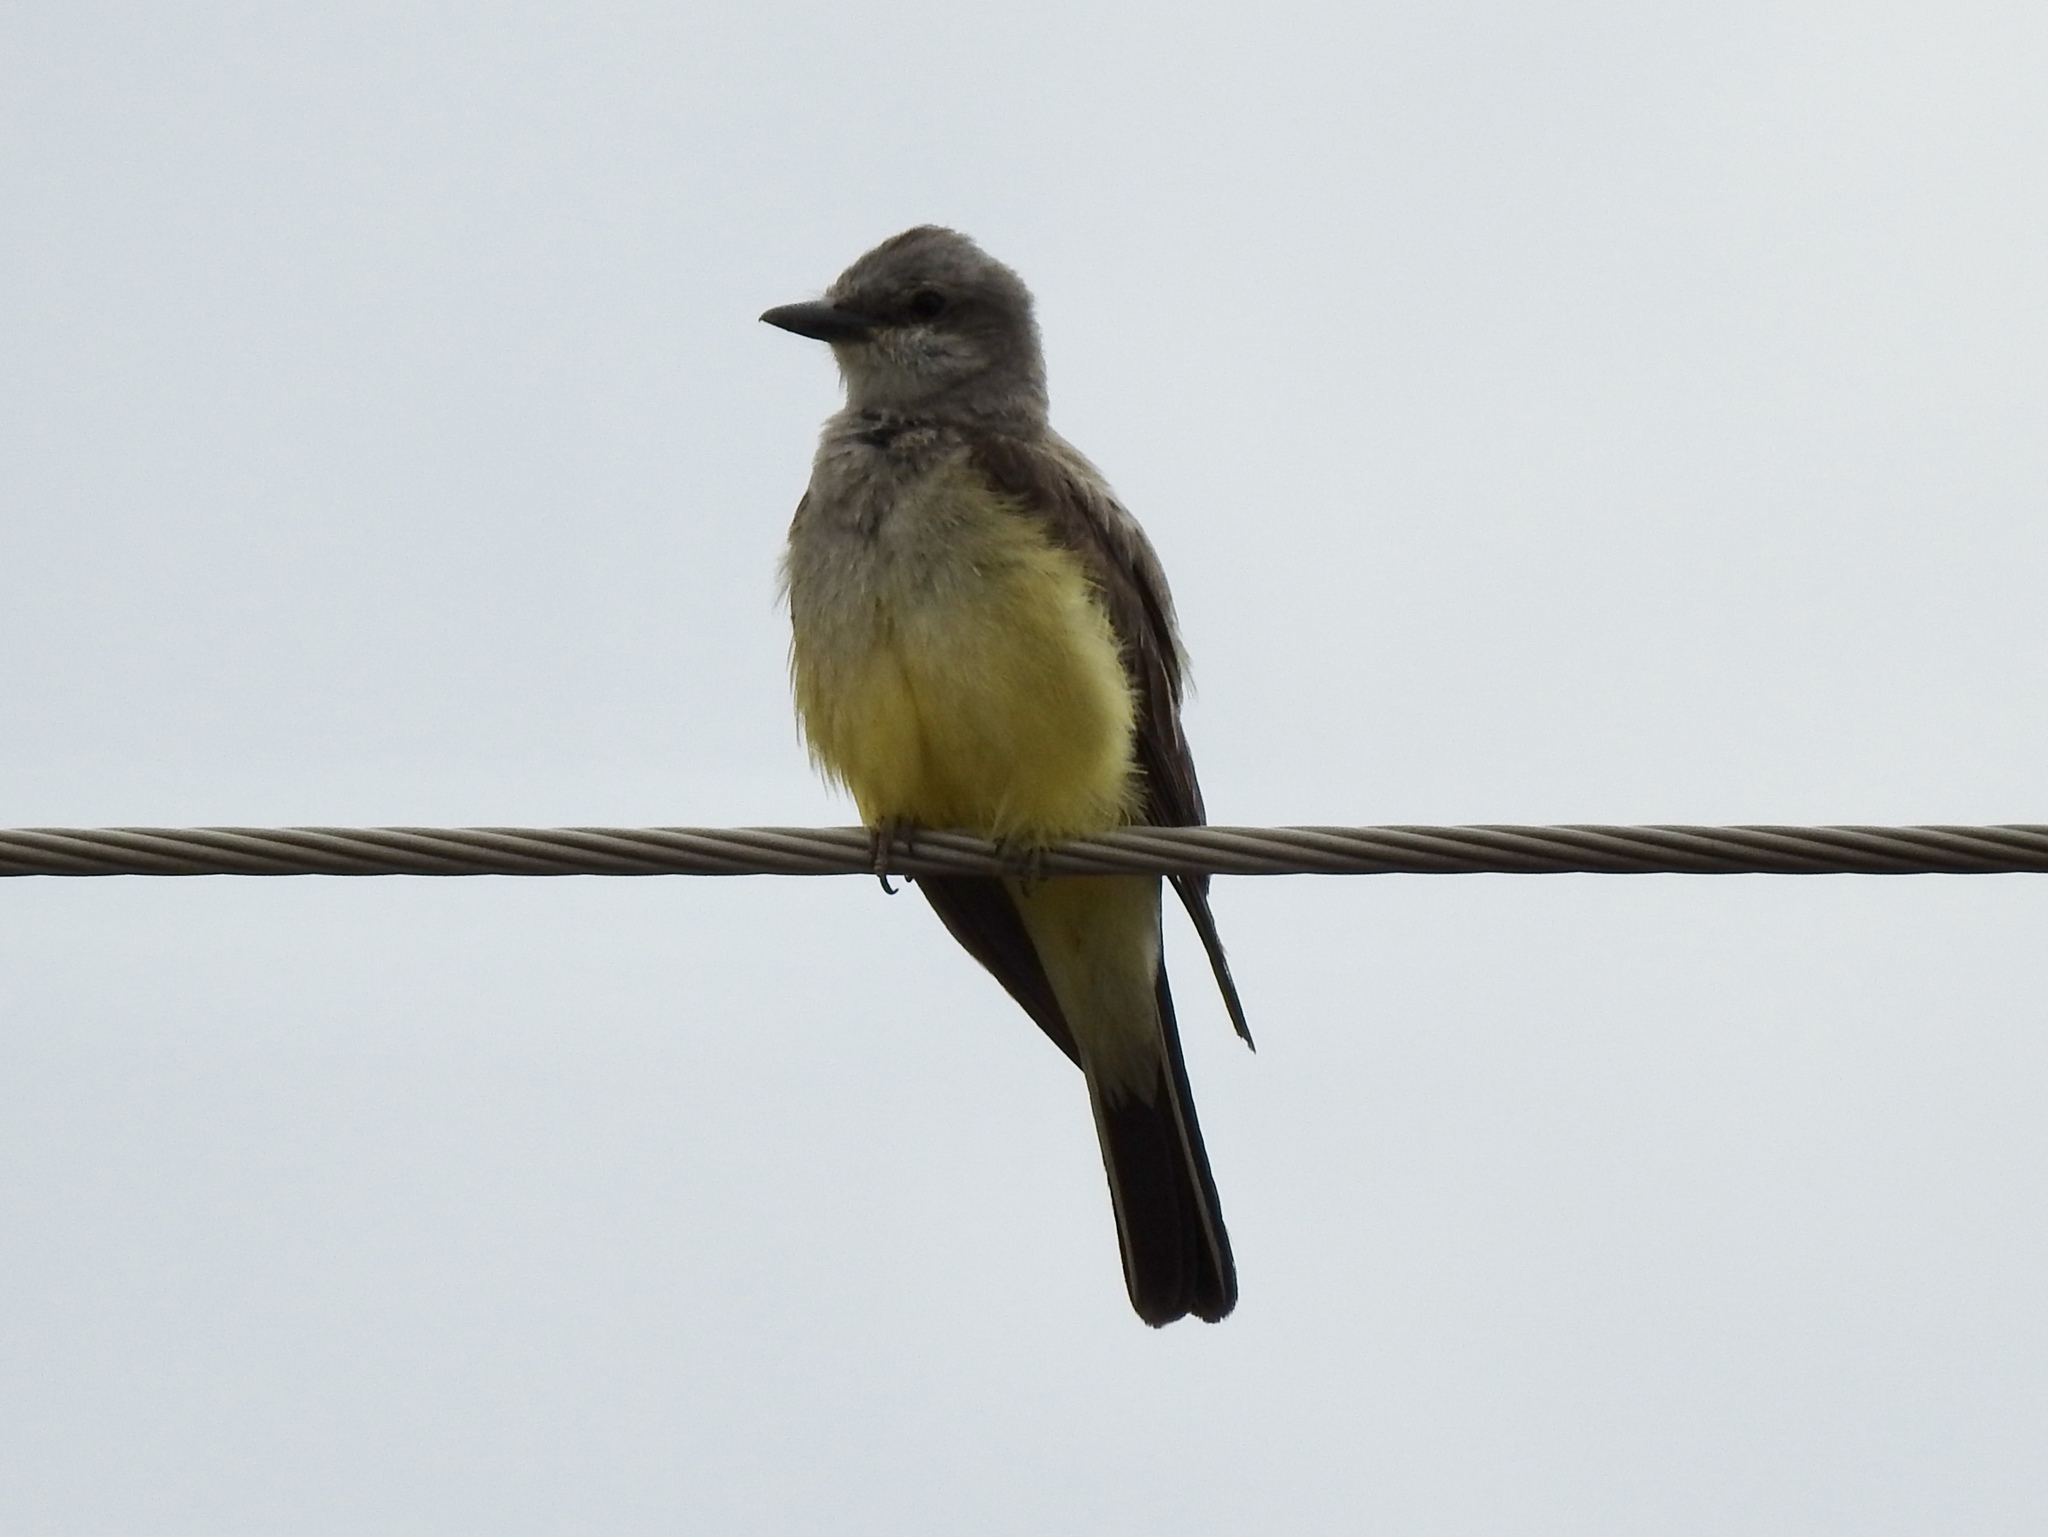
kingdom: Animalia
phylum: Chordata
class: Aves
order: Passeriformes
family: Tyrannidae
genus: Tyrannus
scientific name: Tyrannus verticalis
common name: Western kingbird
